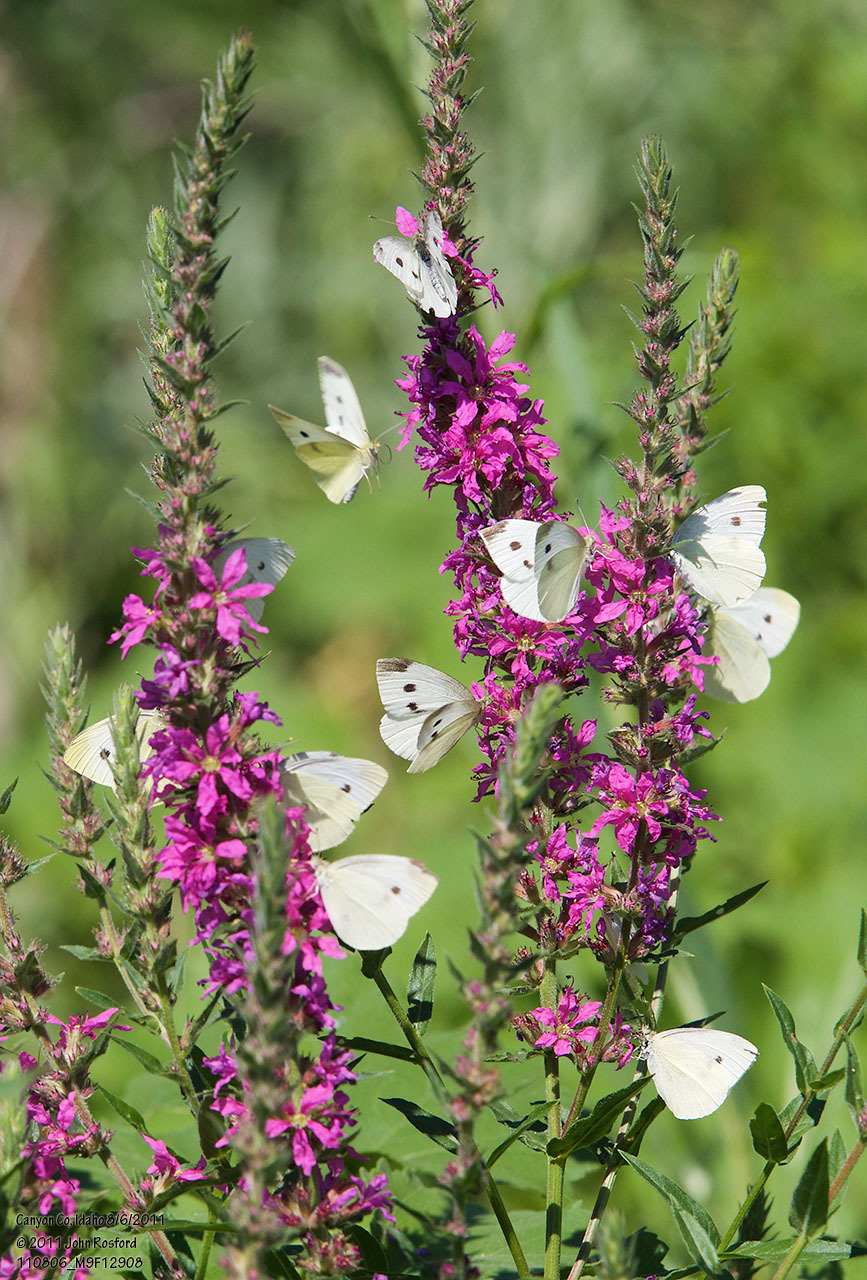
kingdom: Animalia
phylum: Arthropoda
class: Insecta
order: Lepidoptera
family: Pieridae
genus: Pieris
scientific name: Pieris rapae
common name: Small white
